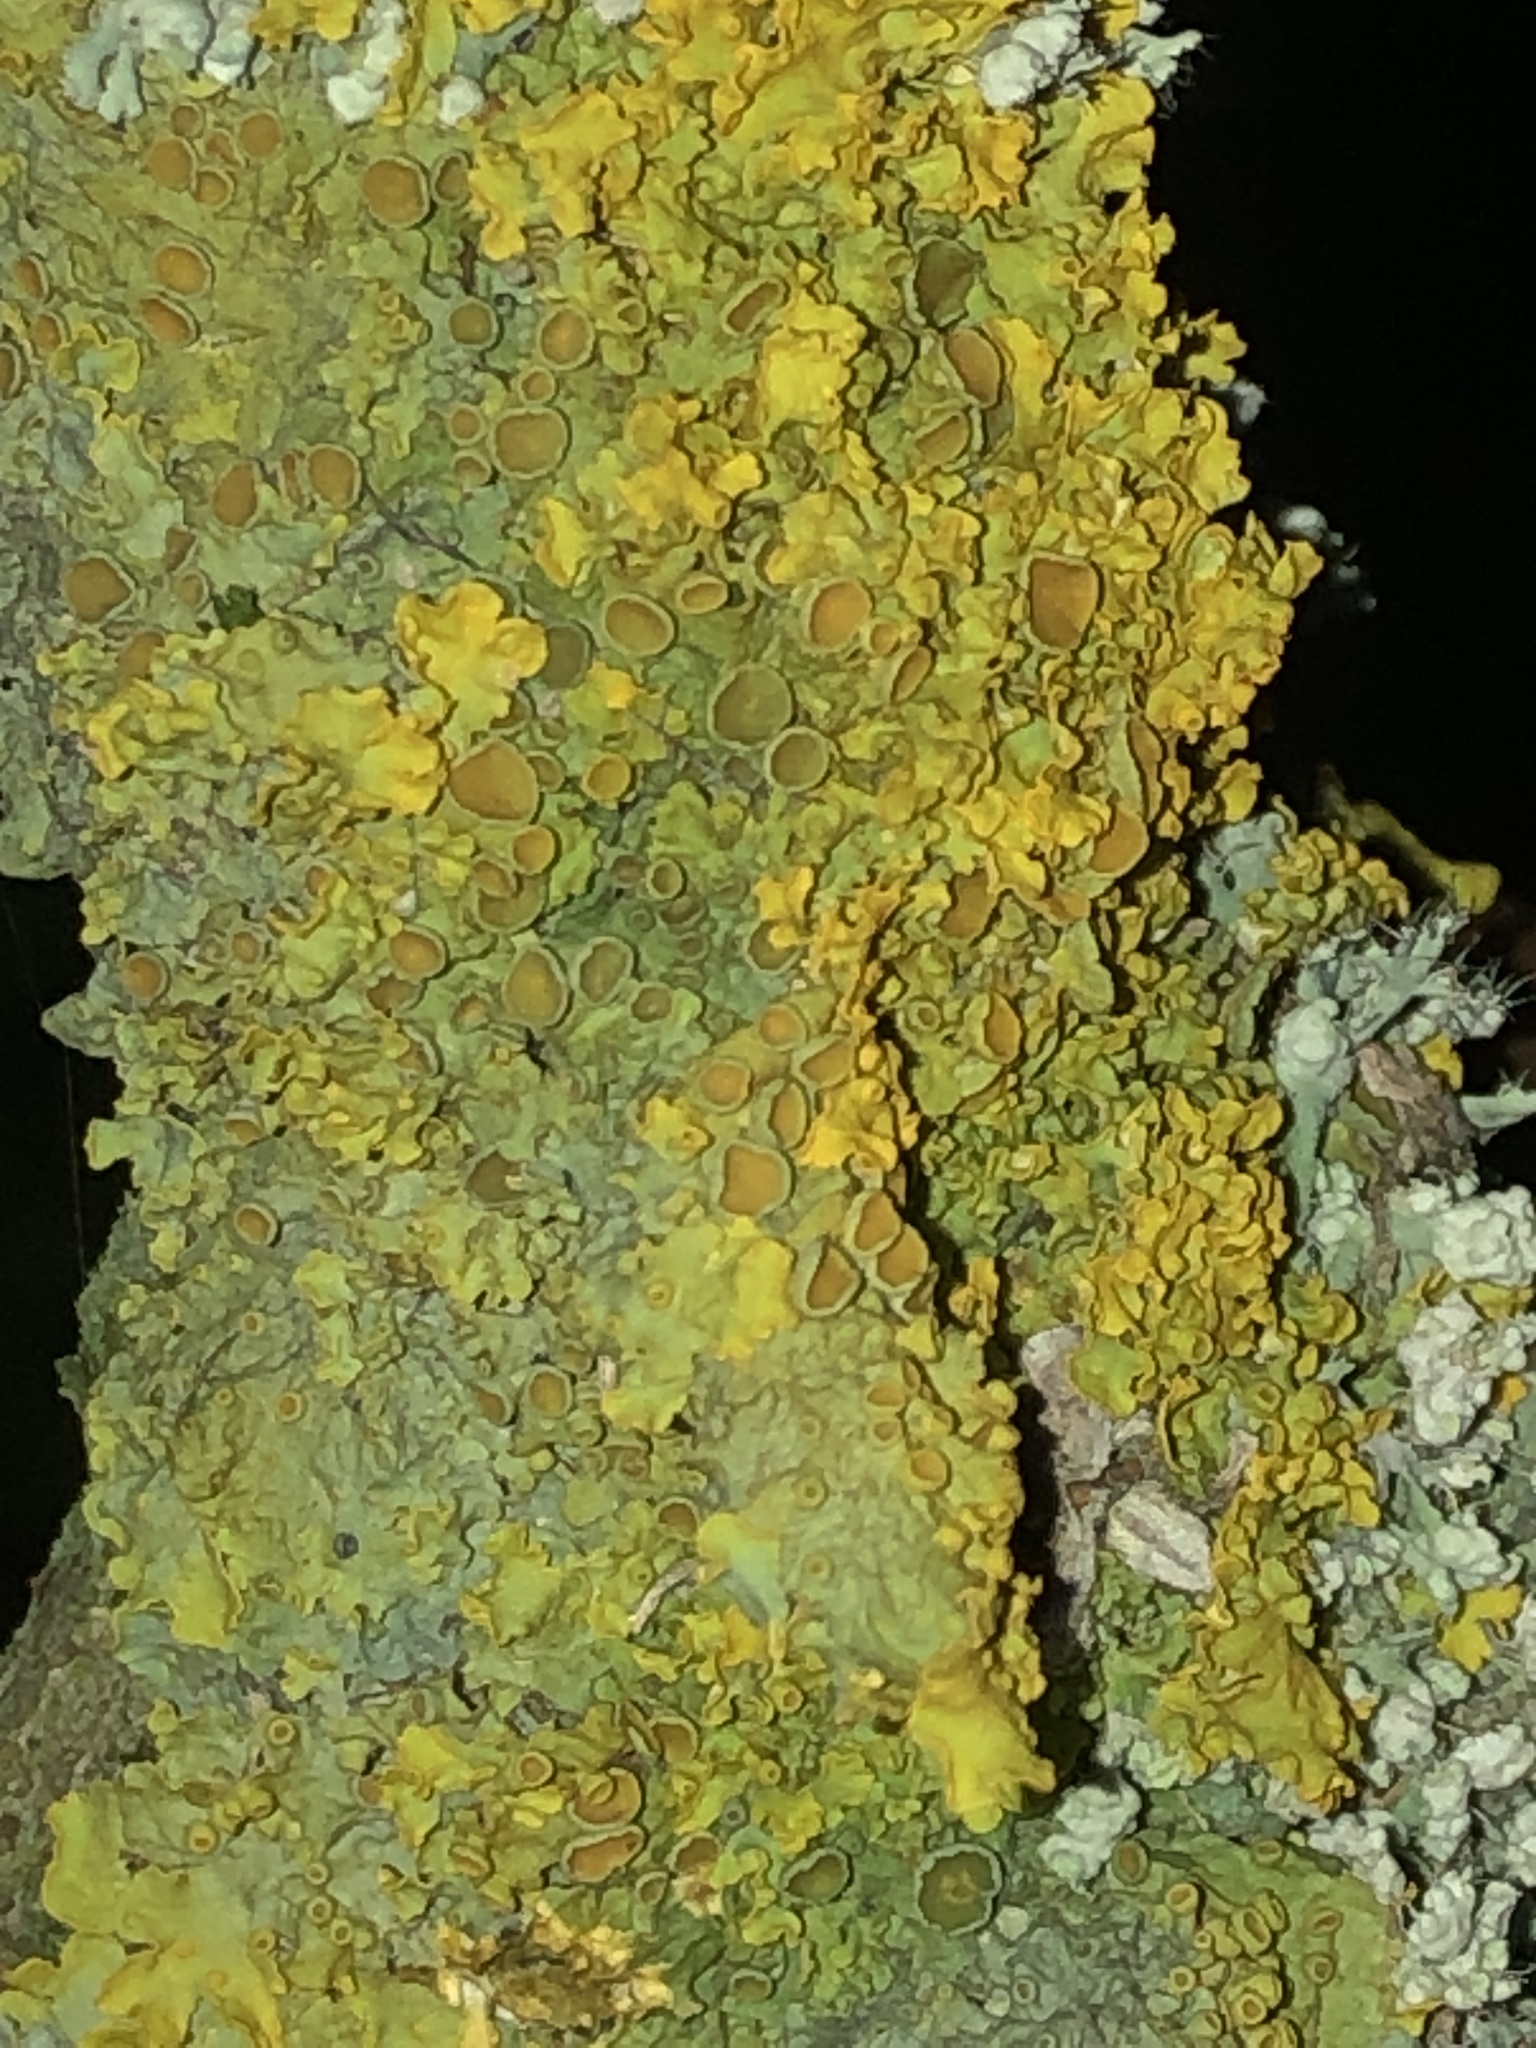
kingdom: Fungi
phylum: Ascomycota
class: Lecanoromycetes
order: Teloschistales
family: Teloschistaceae
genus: Xanthoria
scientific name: Xanthoria parietina
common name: Common orange lichen
